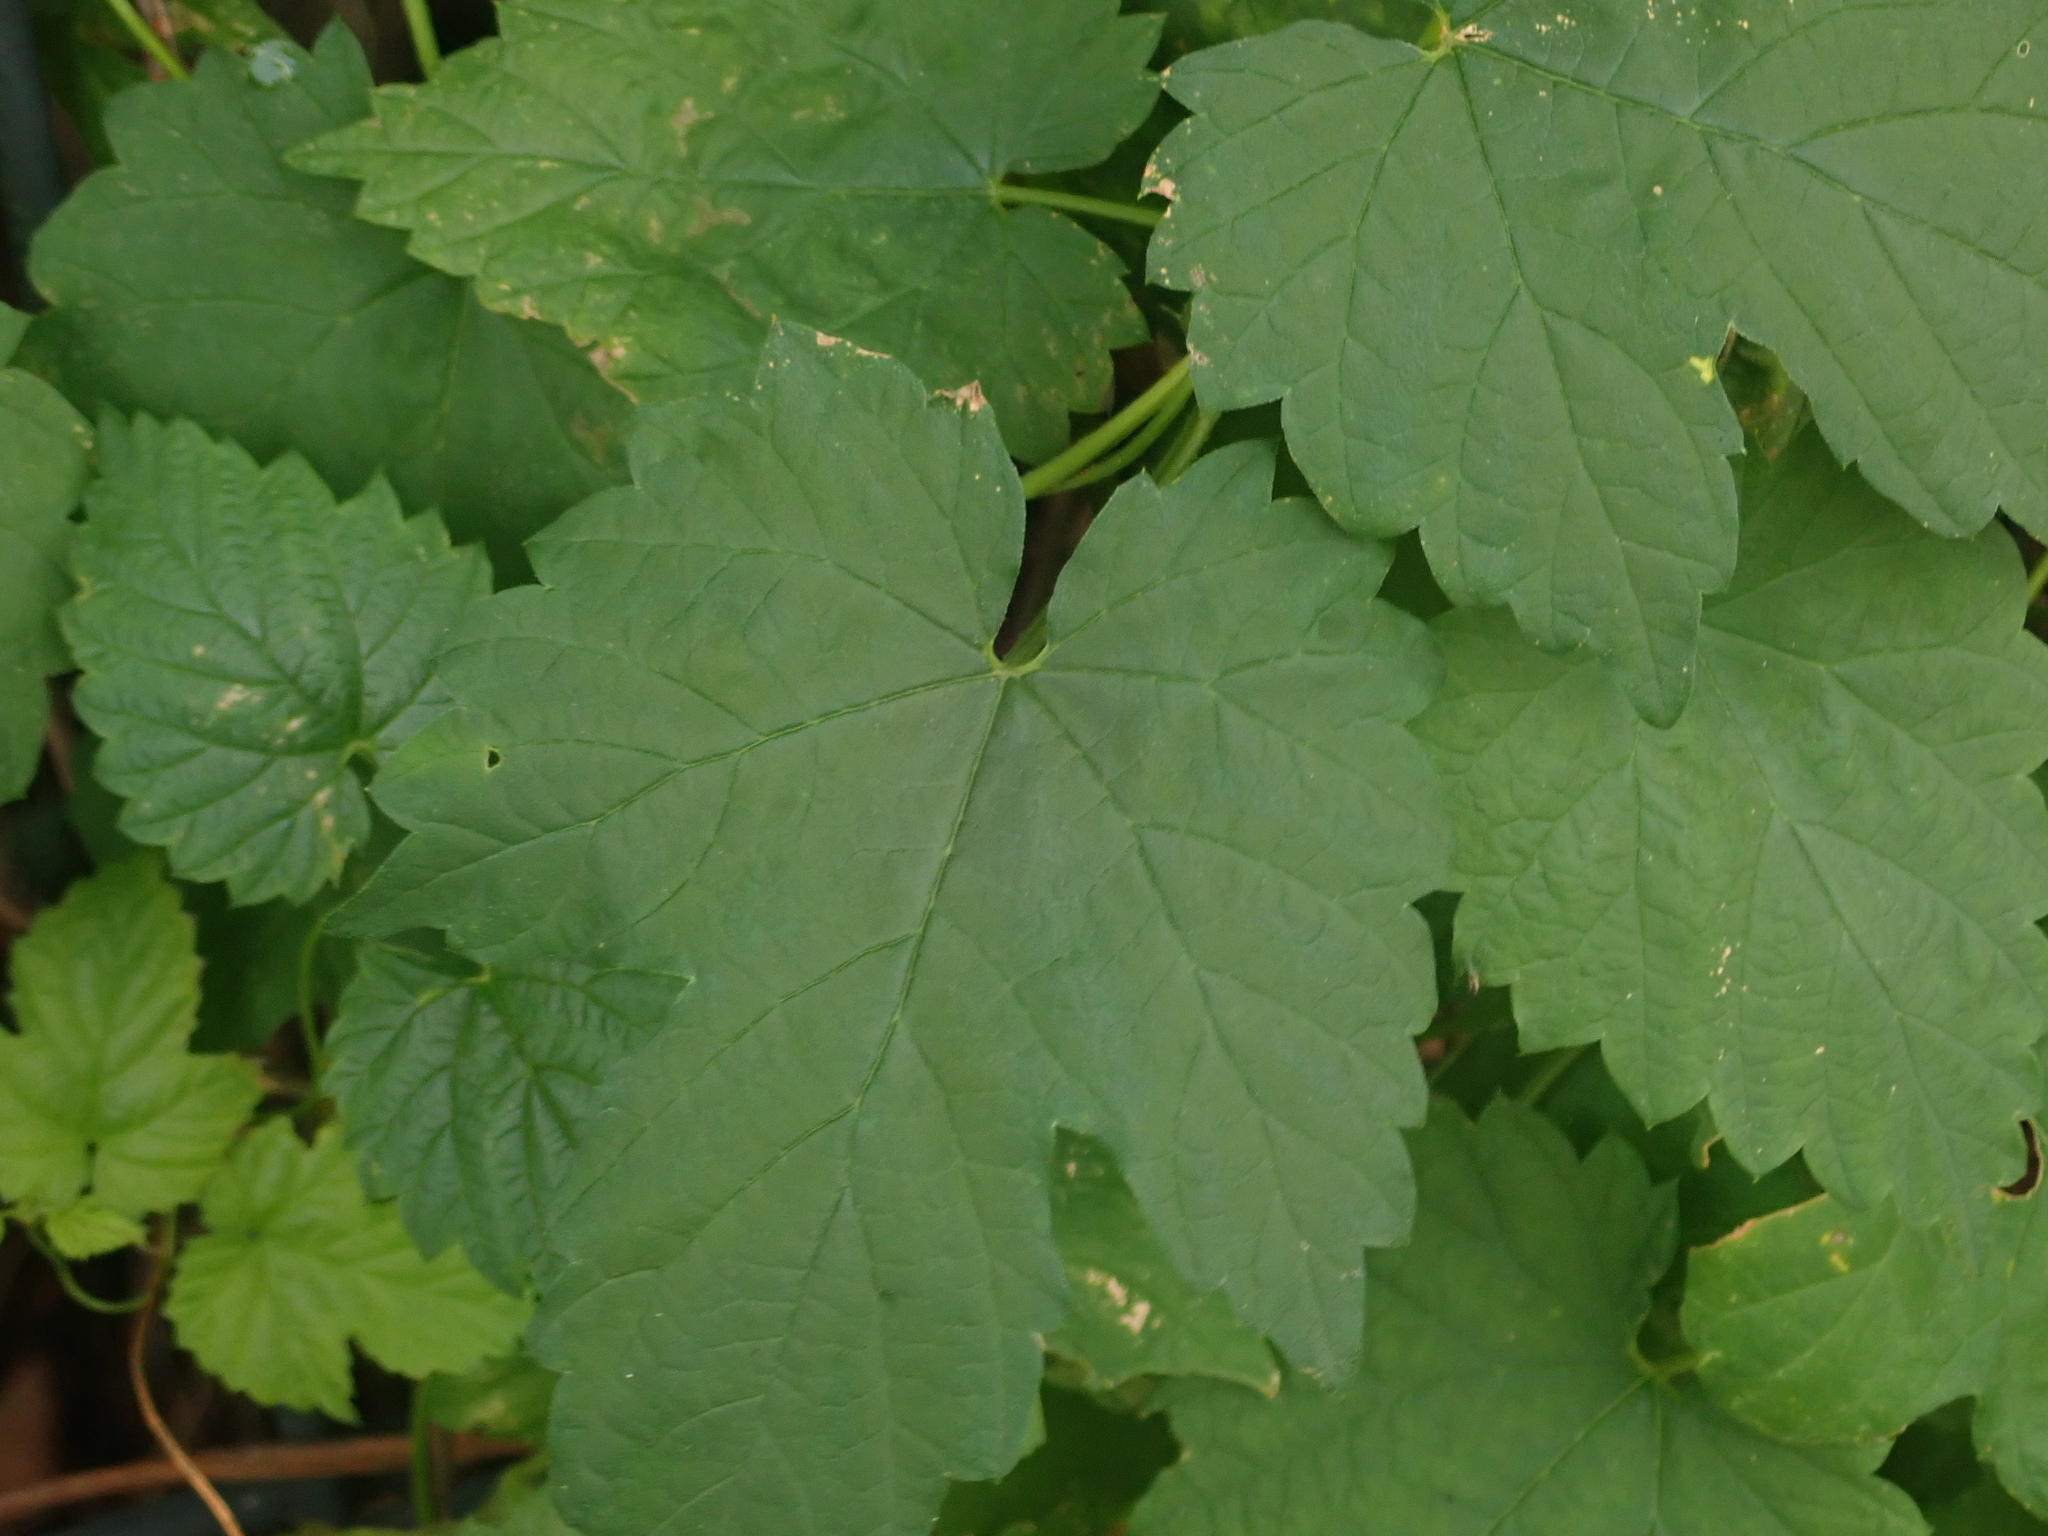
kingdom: Plantae
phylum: Tracheophyta
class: Magnoliopsida
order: Rosales
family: Cannabaceae
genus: Humulus
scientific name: Humulus lupulus
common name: Hop
